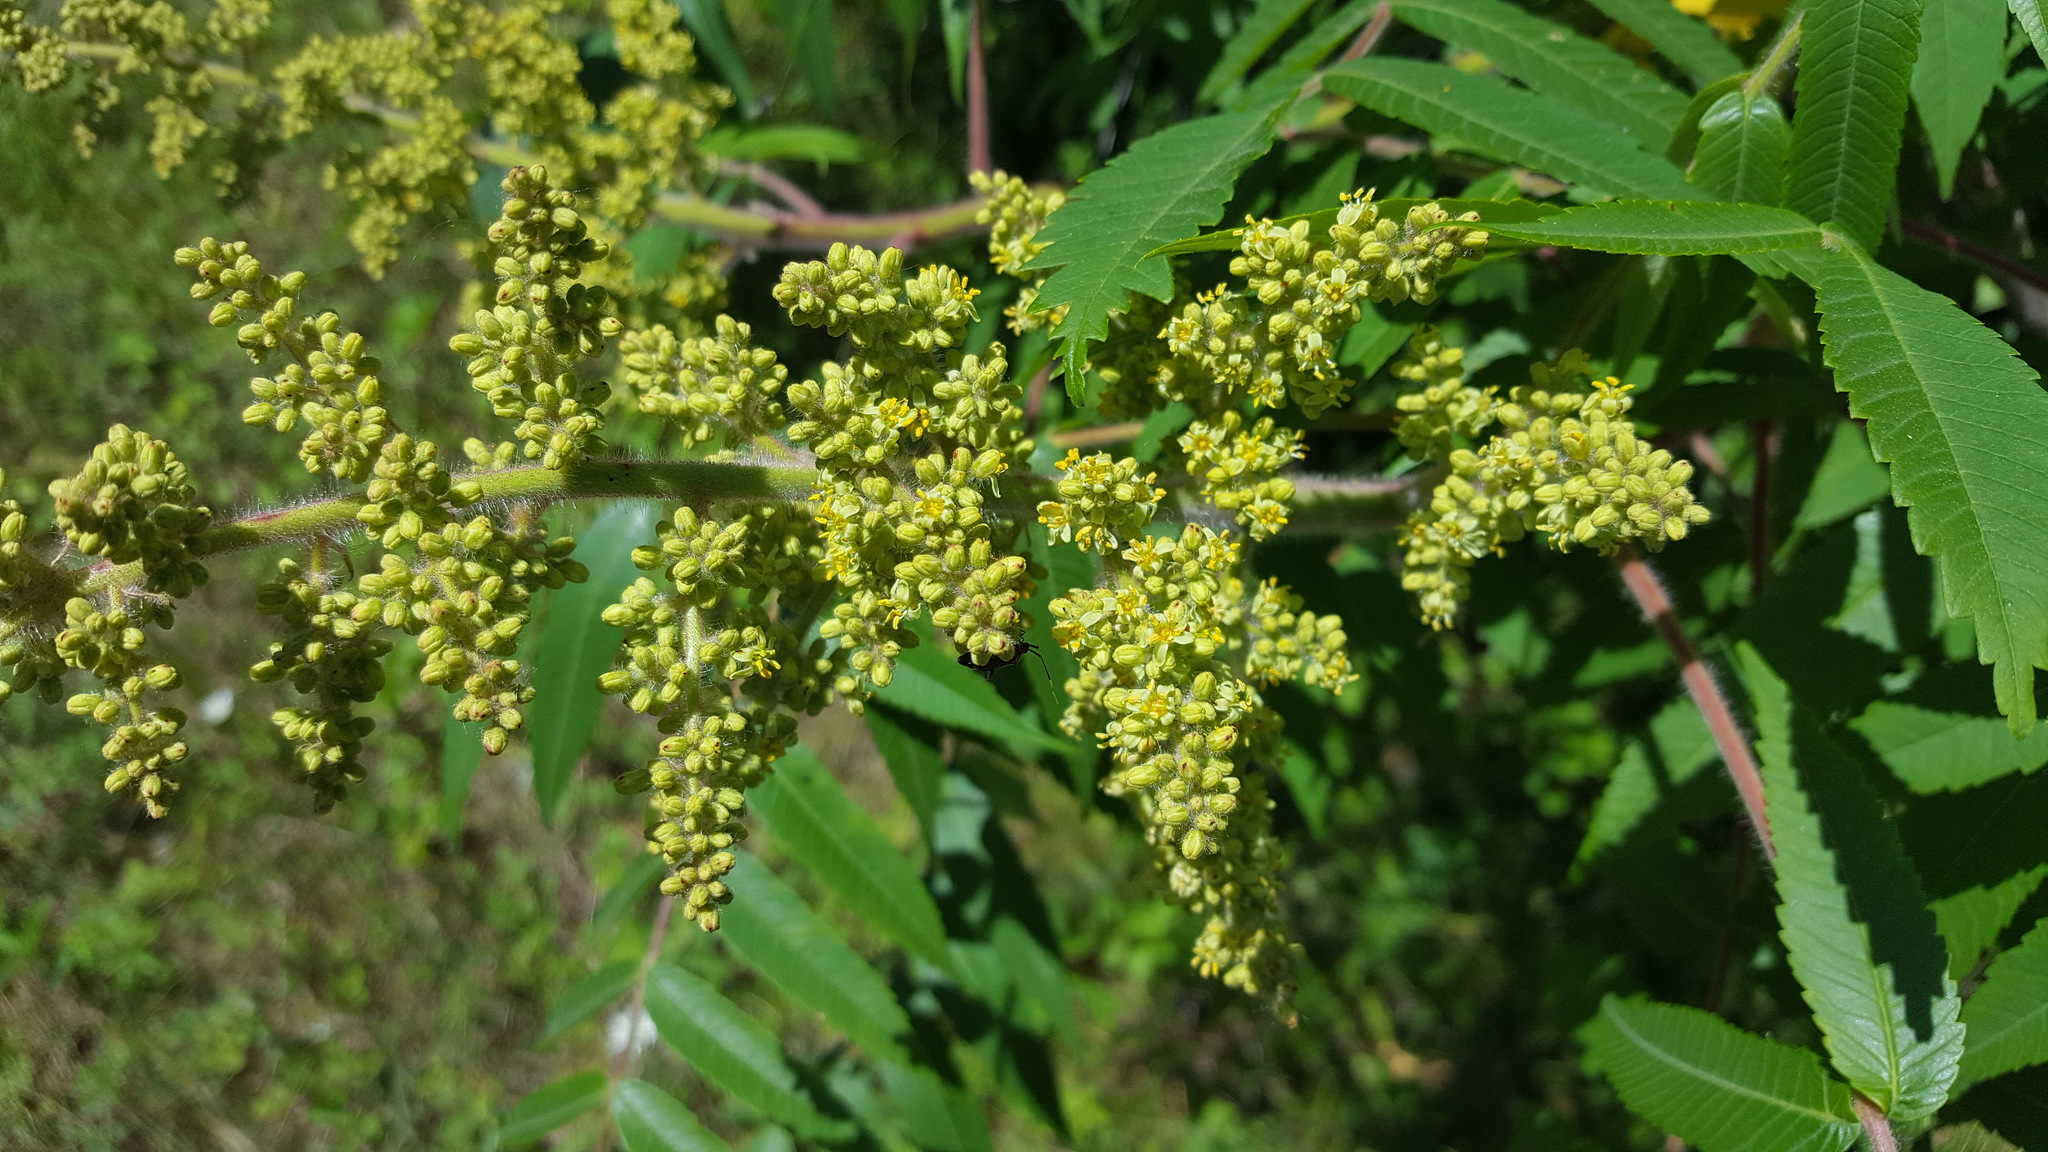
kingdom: Plantae
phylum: Tracheophyta
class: Magnoliopsida
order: Sapindales
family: Anacardiaceae
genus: Rhus
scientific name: Rhus typhina
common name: Staghorn sumac
